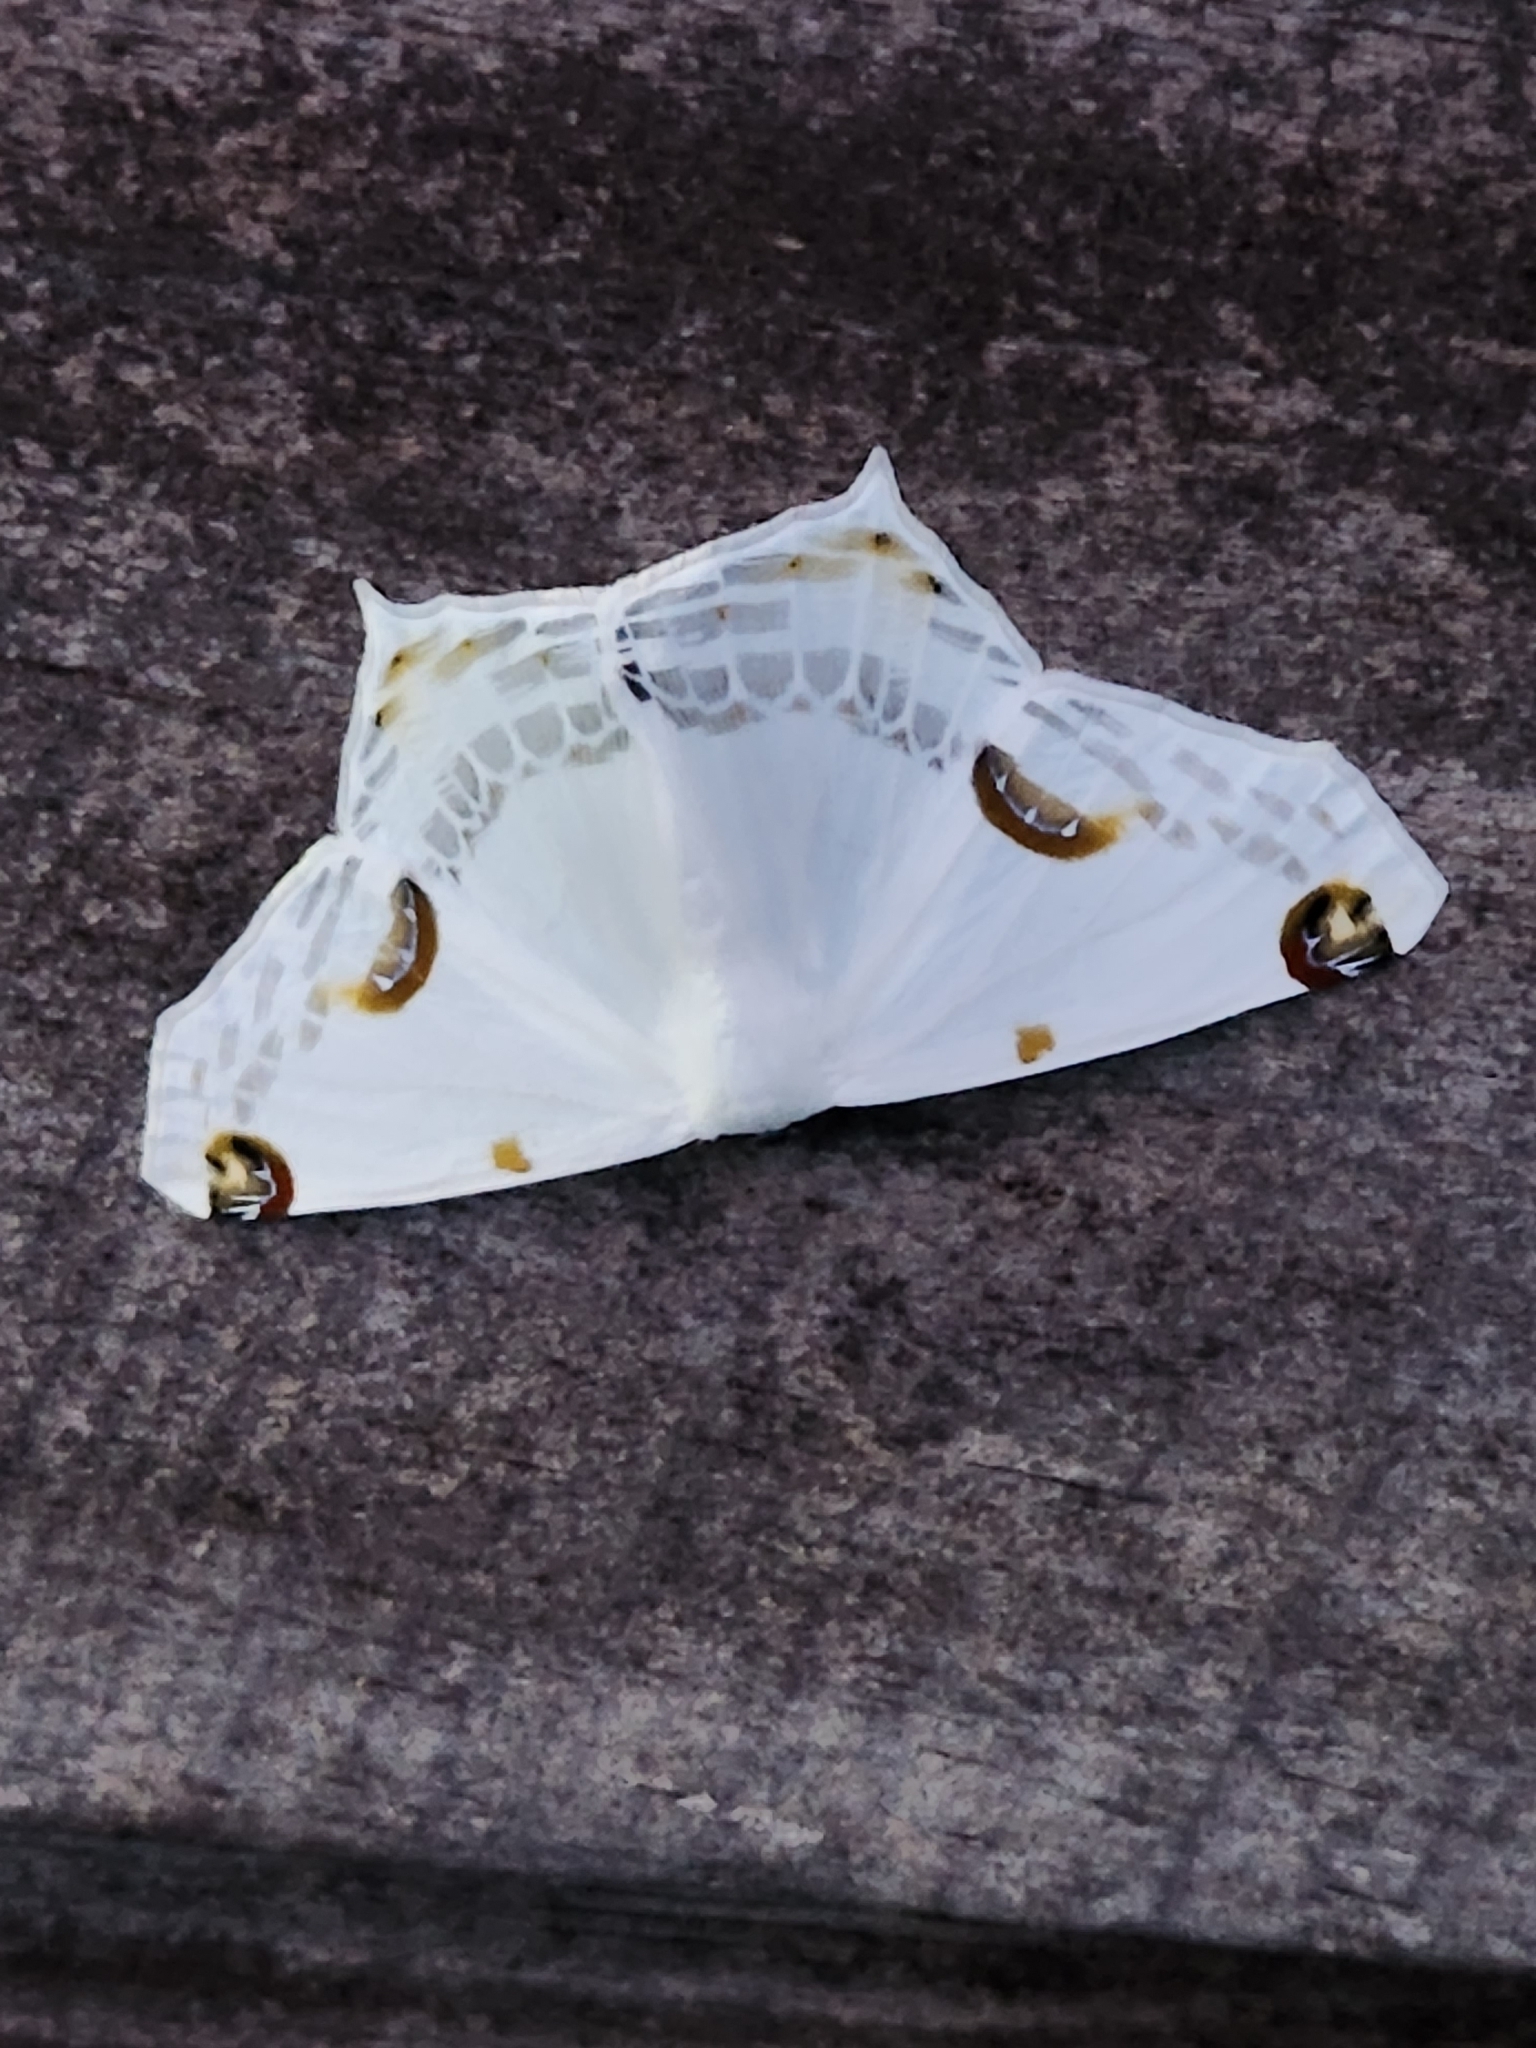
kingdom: Animalia
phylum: Arthropoda
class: Insecta
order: Lepidoptera
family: Geometridae
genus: Sericoptera
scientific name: Sericoptera mahometaria
